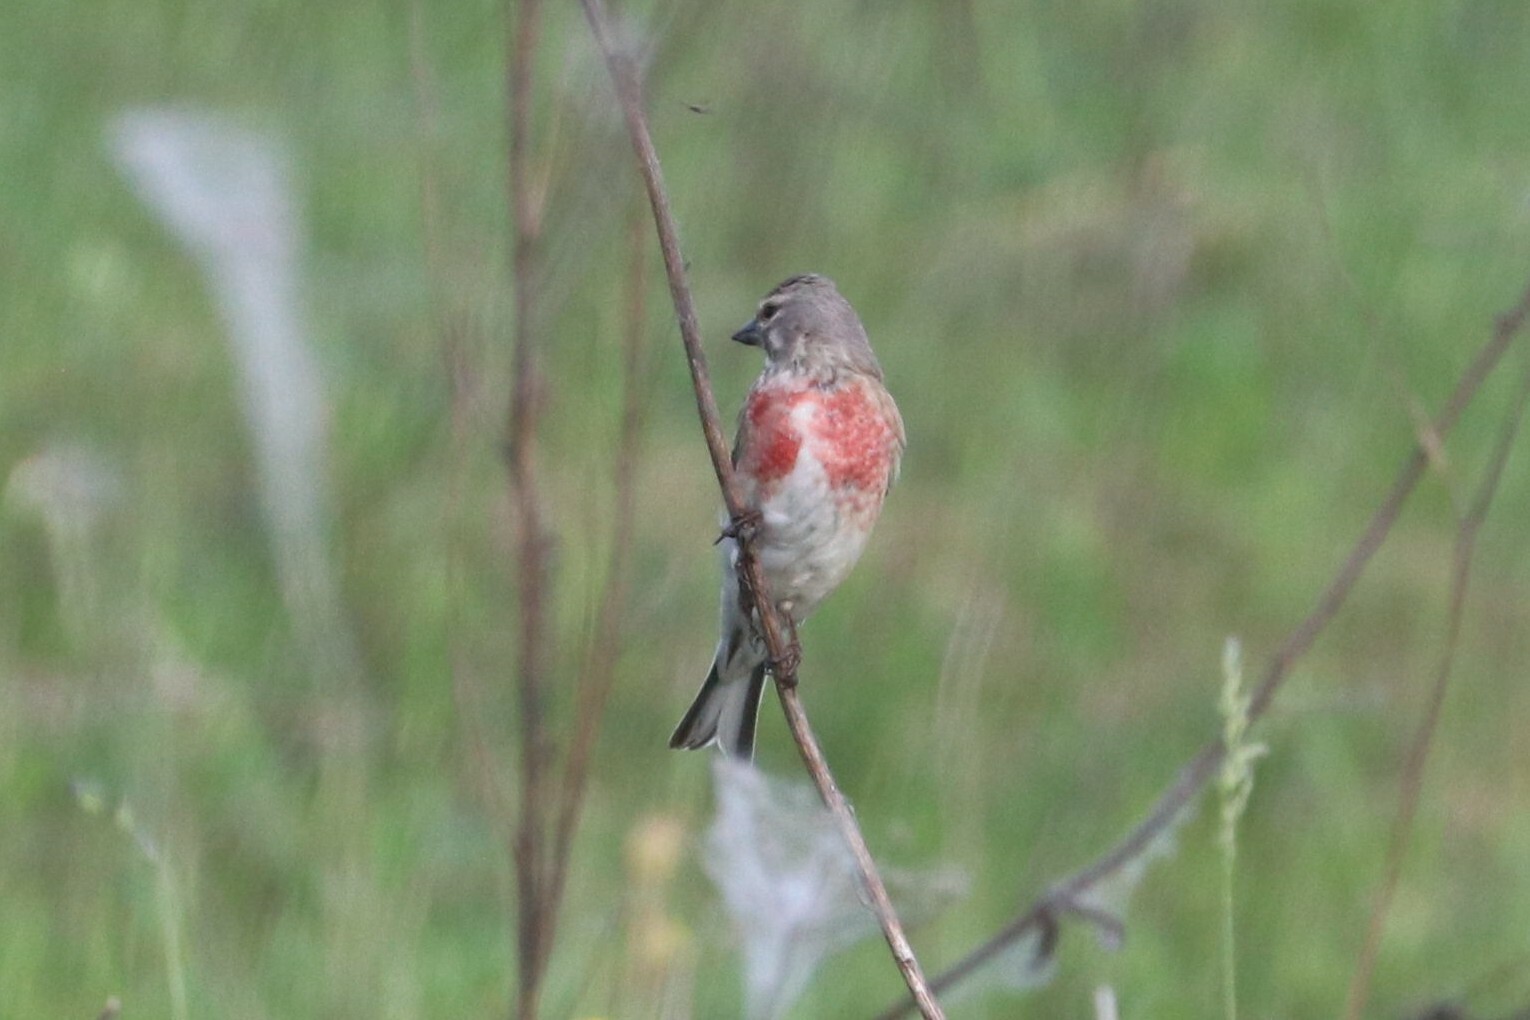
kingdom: Animalia
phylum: Chordata
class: Aves
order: Passeriformes
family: Fringillidae
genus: Linaria
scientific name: Linaria cannabina
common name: Common linnet
